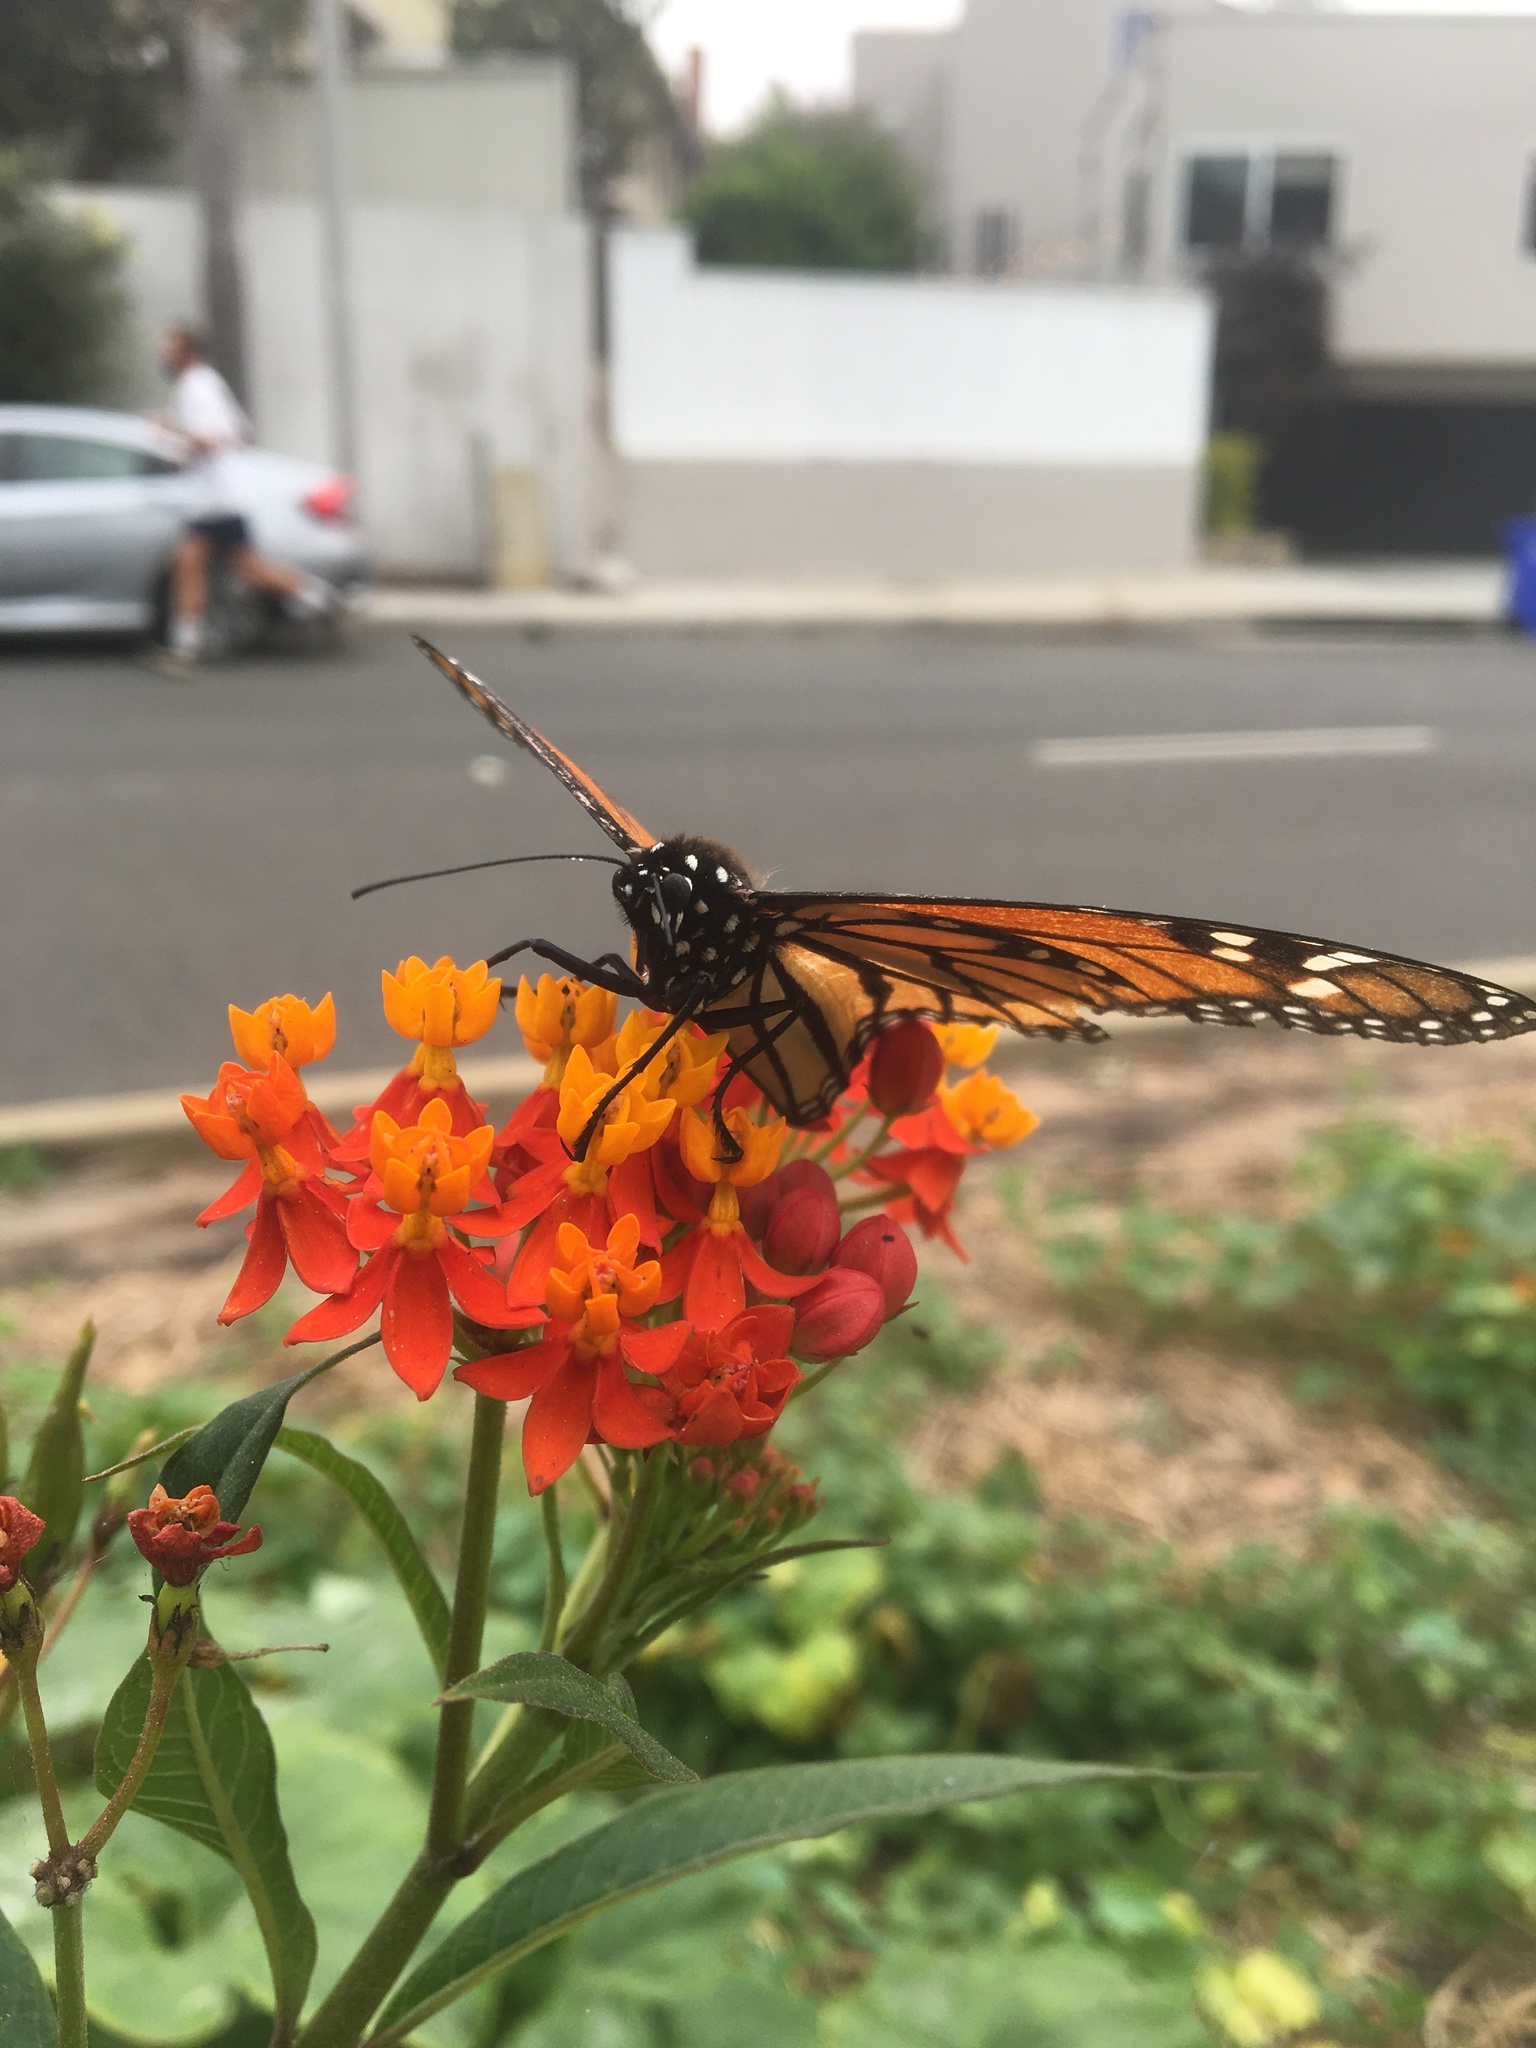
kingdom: Animalia
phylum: Arthropoda
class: Insecta
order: Lepidoptera
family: Nymphalidae
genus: Danaus
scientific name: Danaus plexippus
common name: Monarch
